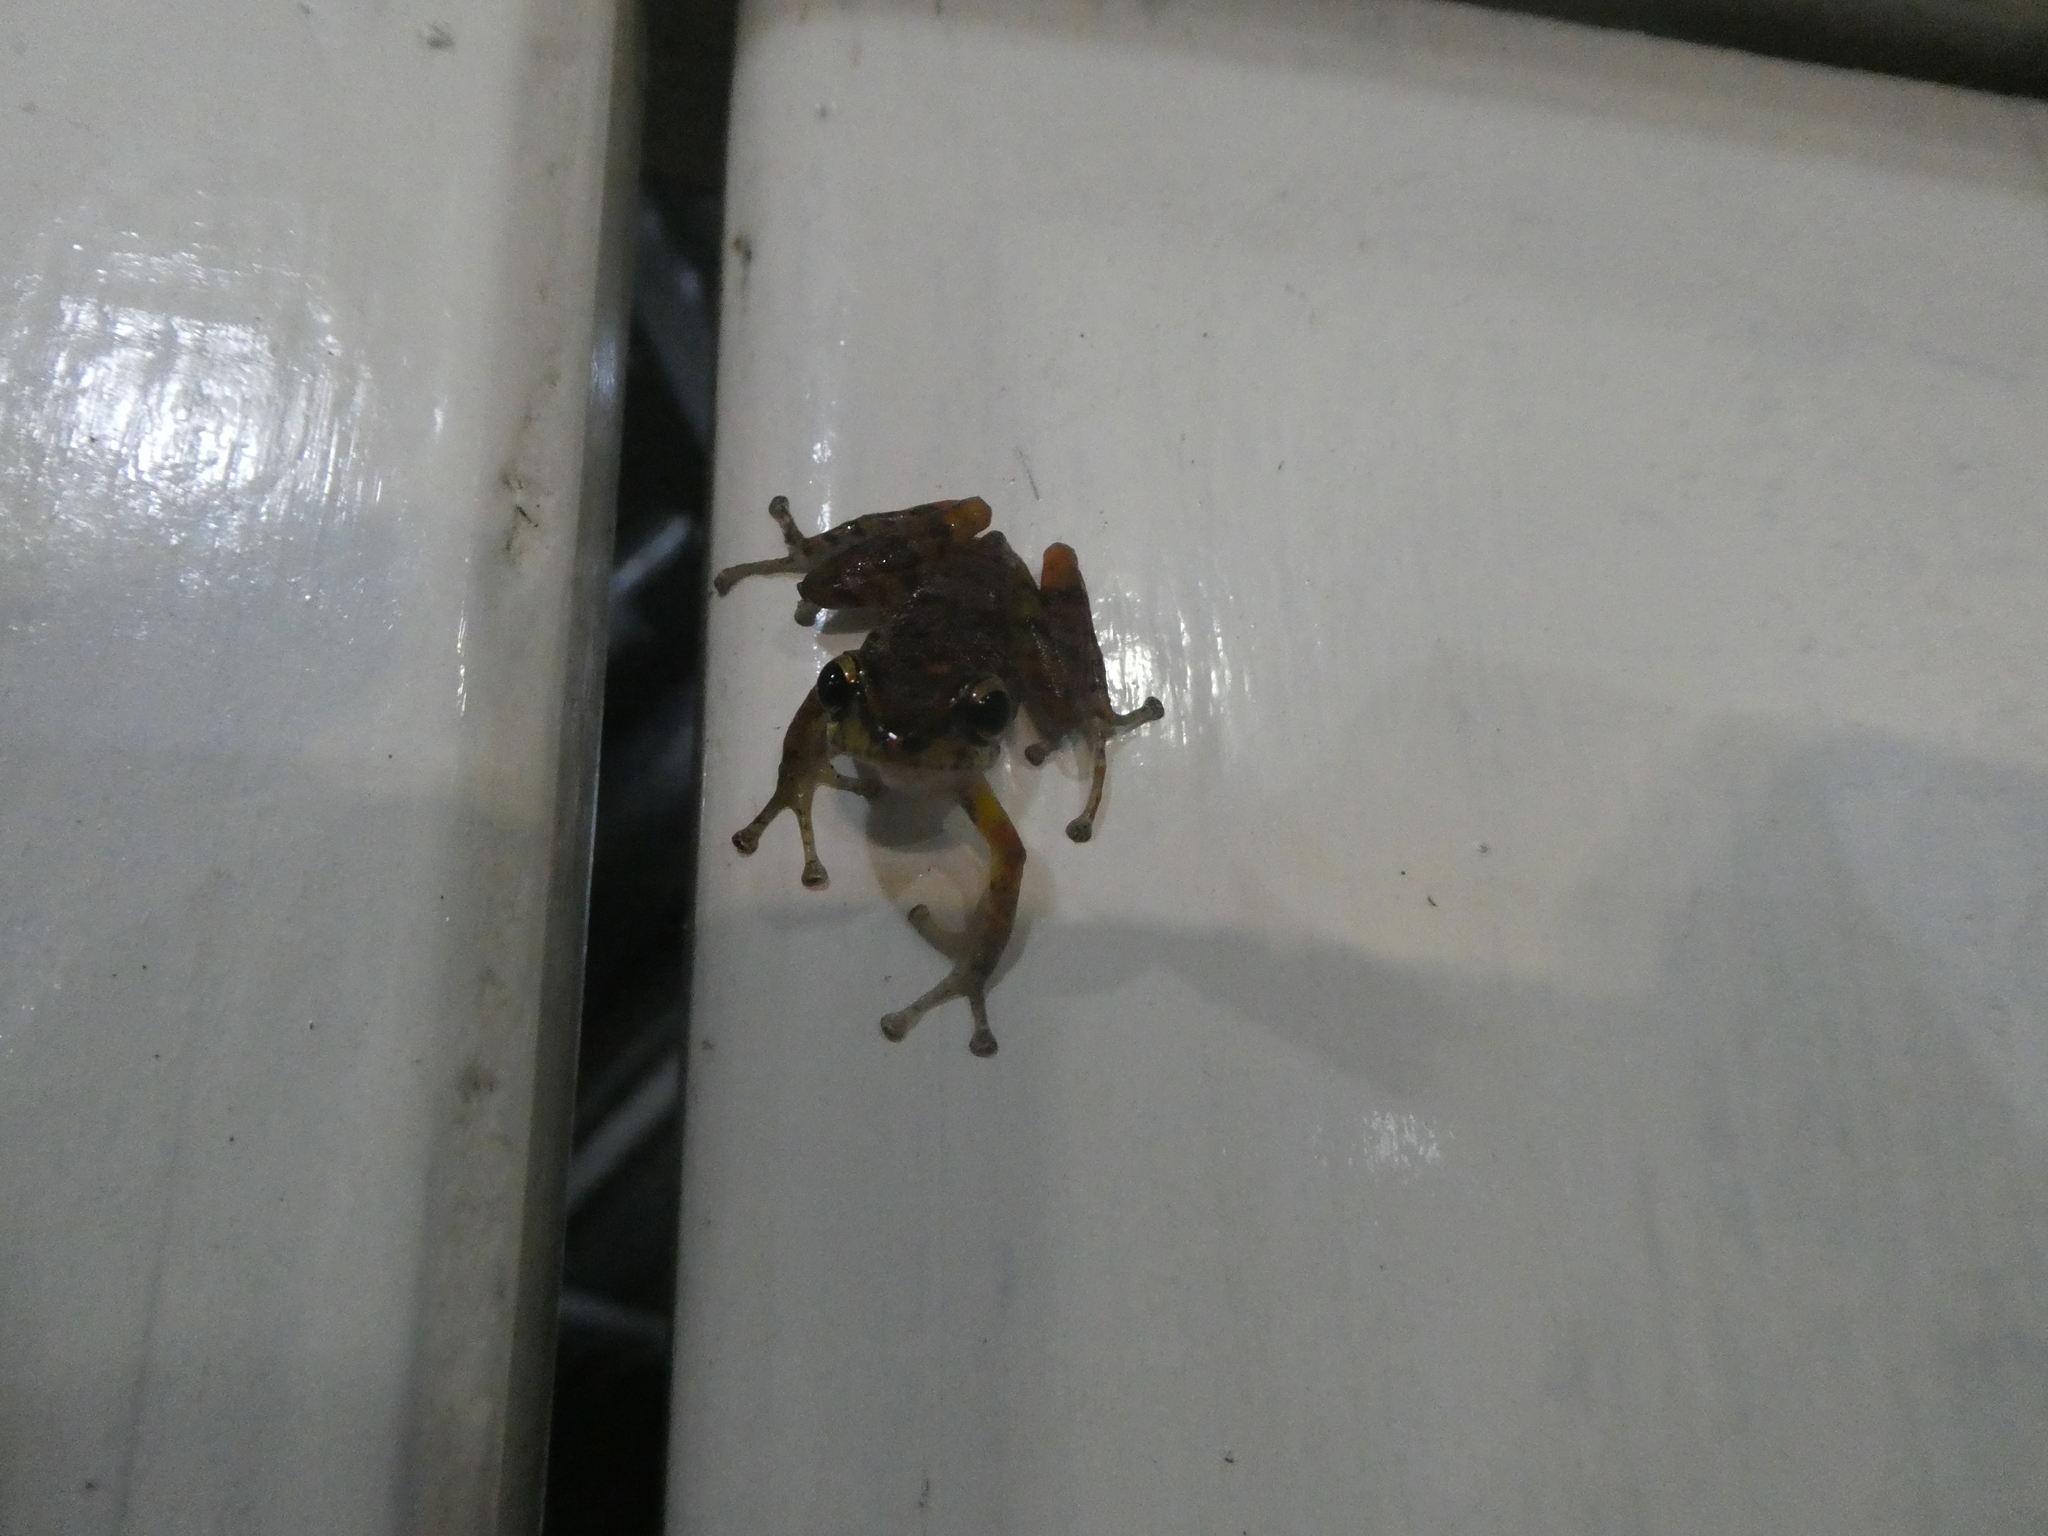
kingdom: Animalia
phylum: Chordata
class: Amphibia
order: Anura
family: Craugastoridae
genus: Pristimantis
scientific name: Pristimantis nyctophylax
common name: Tandapi robber frog
